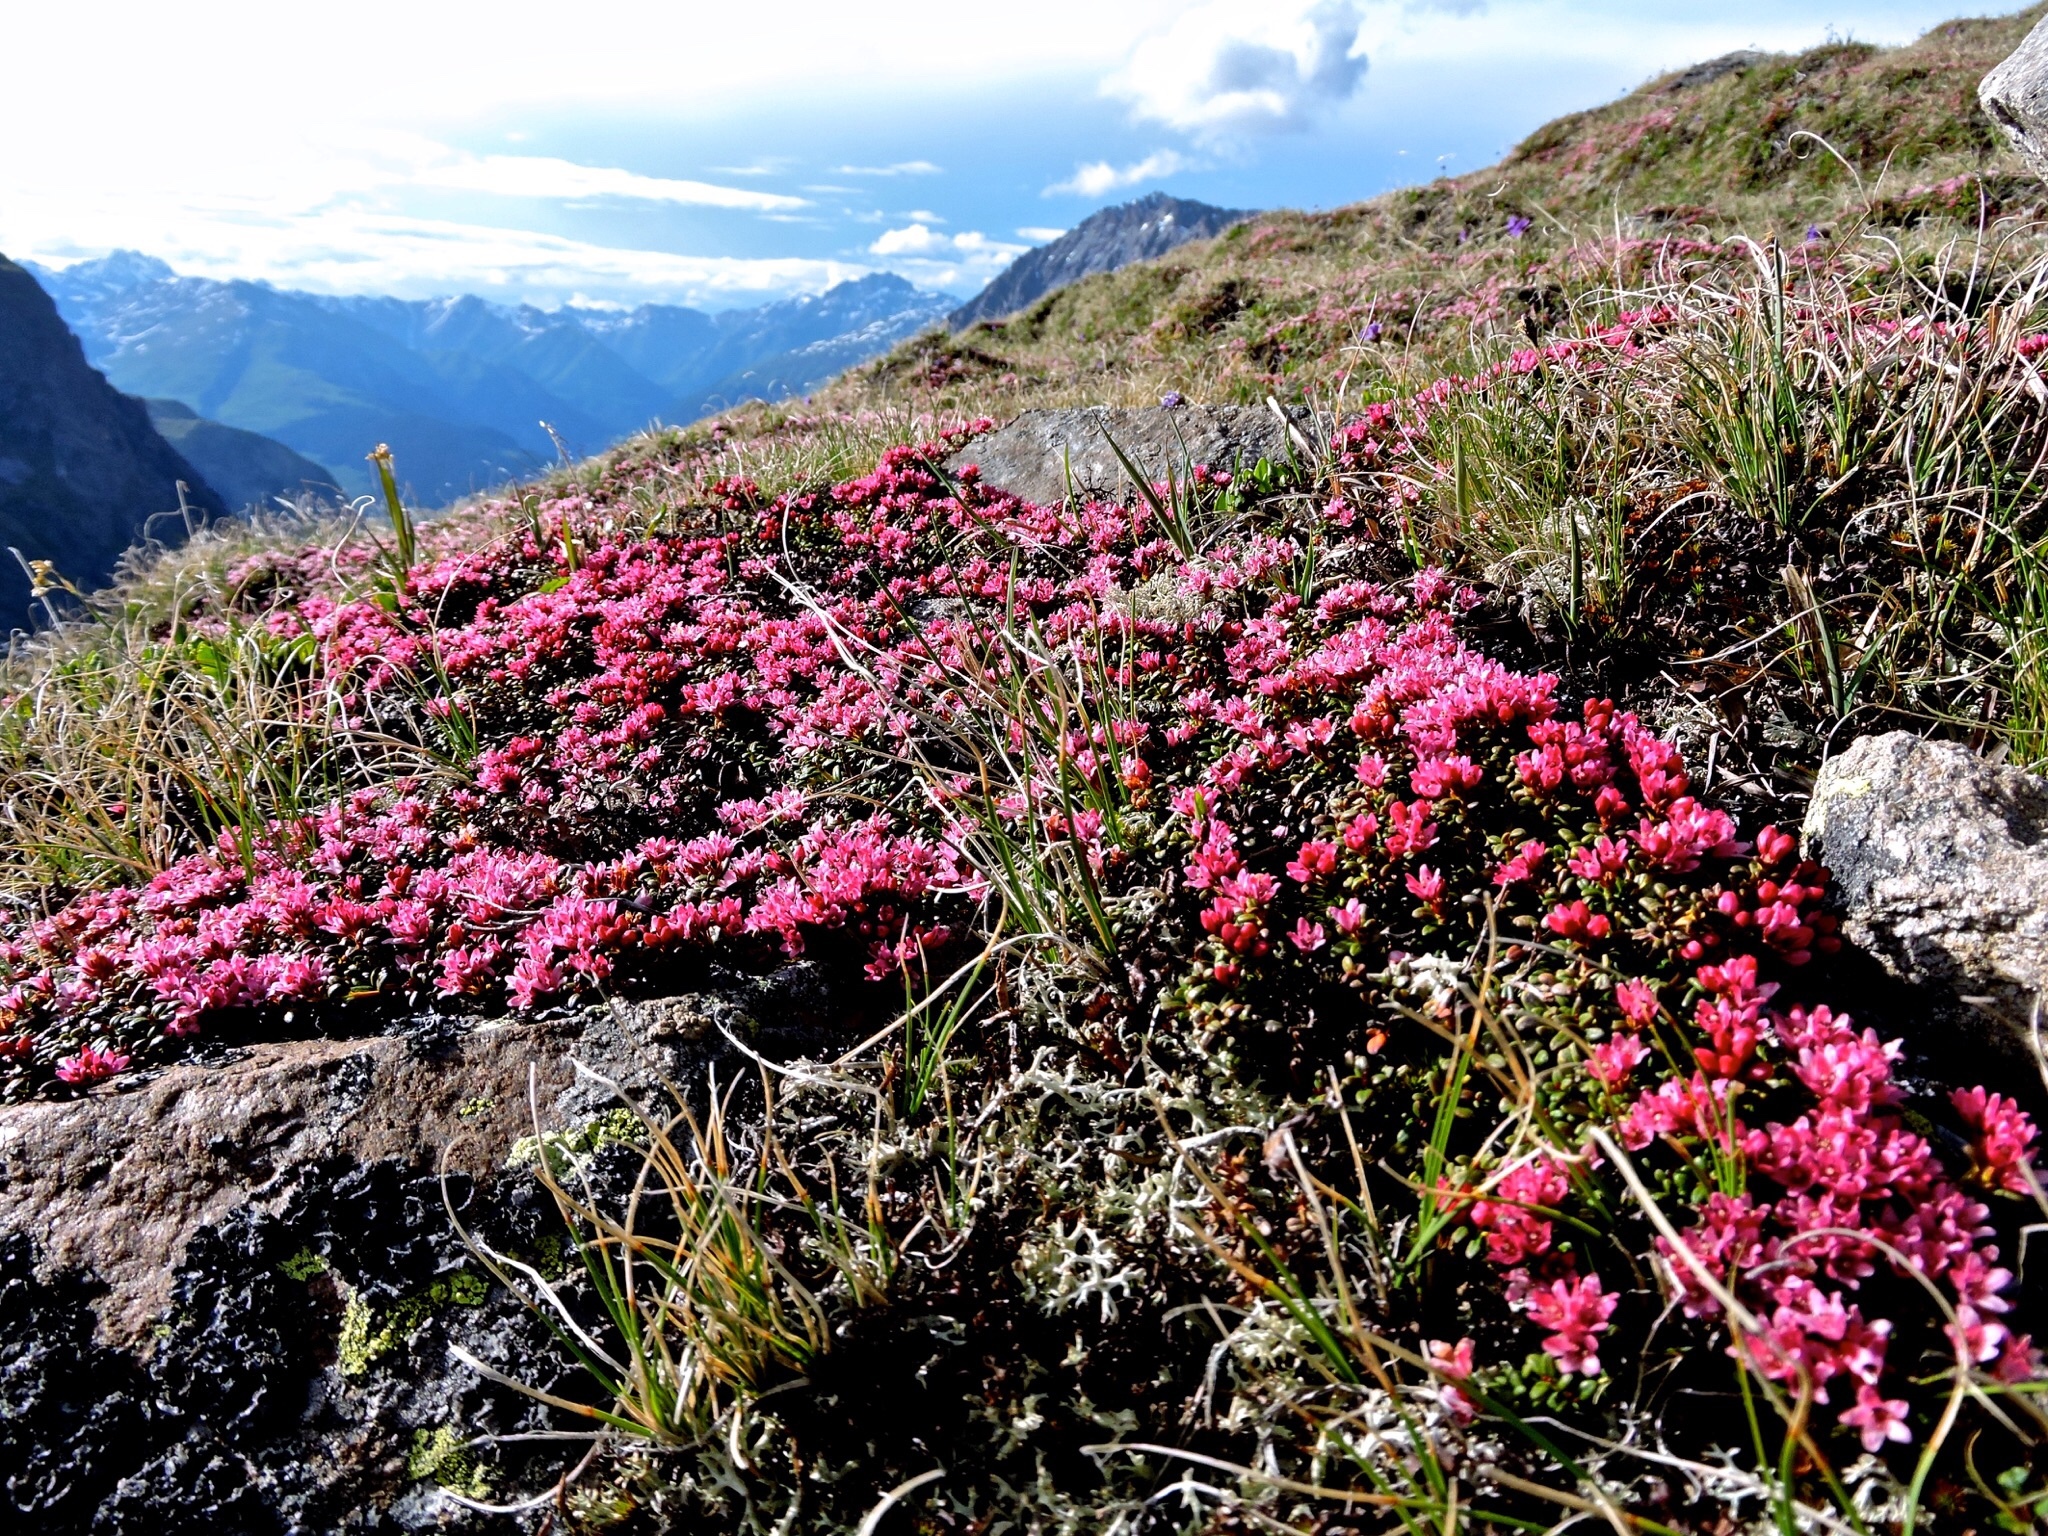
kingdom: Plantae
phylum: Tracheophyta
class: Magnoliopsida
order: Ericales
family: Ericaceae
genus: Kalmia
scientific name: Kalmia procumbens
